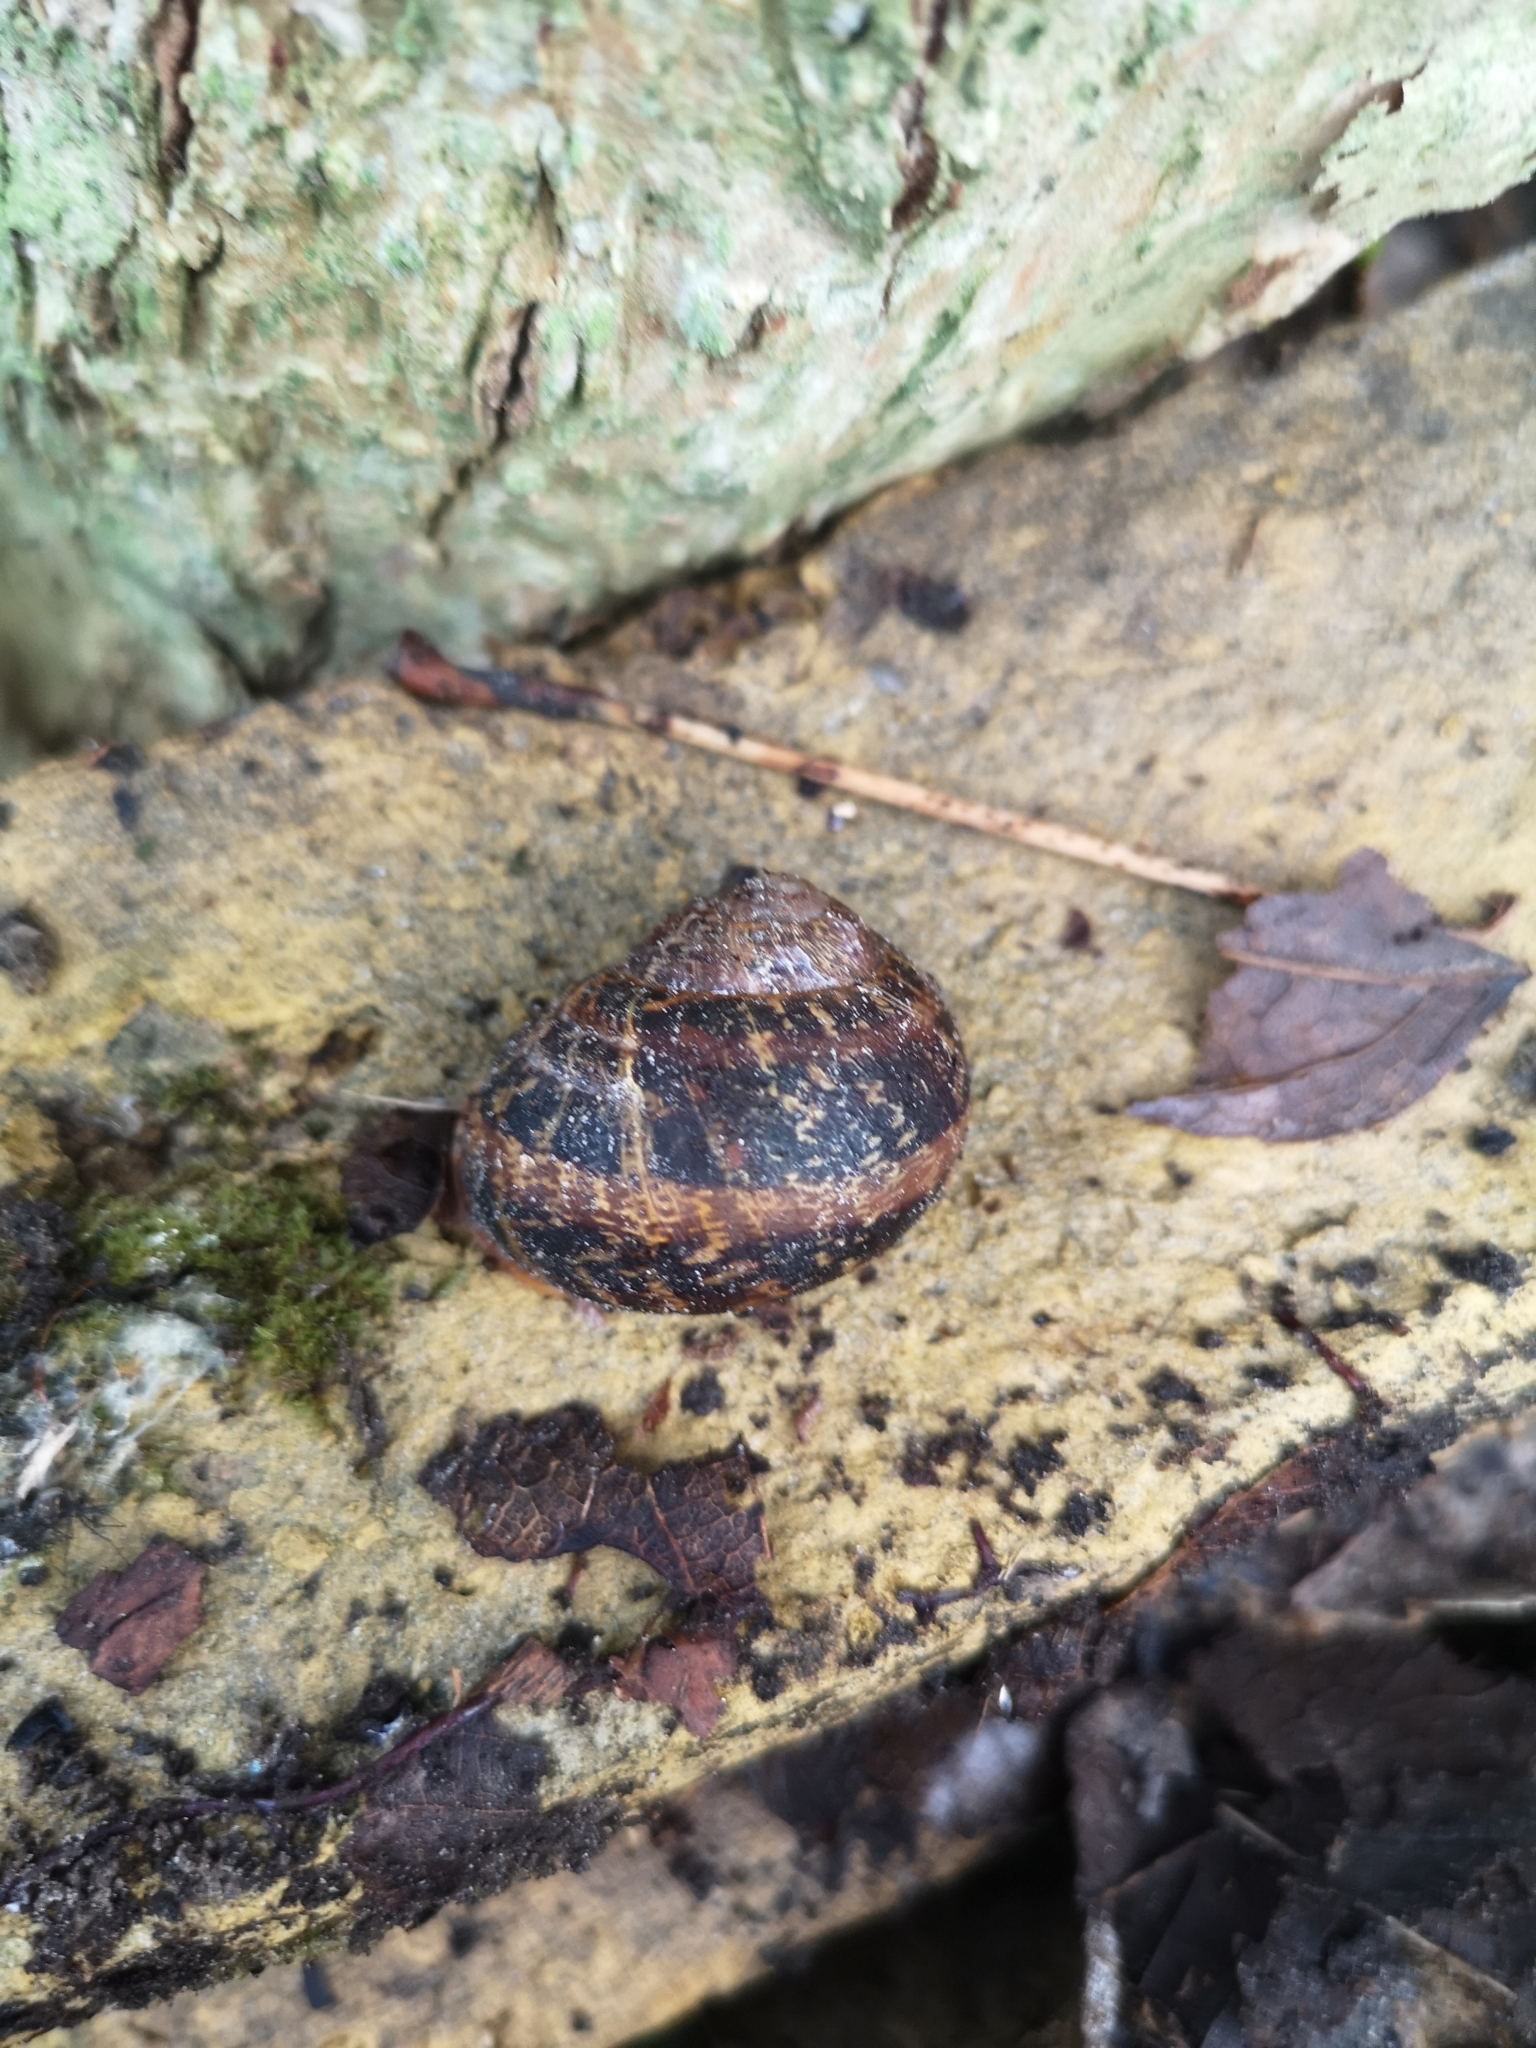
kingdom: Animalia
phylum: Mollusca
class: Gastropoda
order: Stylommatophora
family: Helicidae
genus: Cornu
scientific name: Cornu aspersum
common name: Brown garden snail
